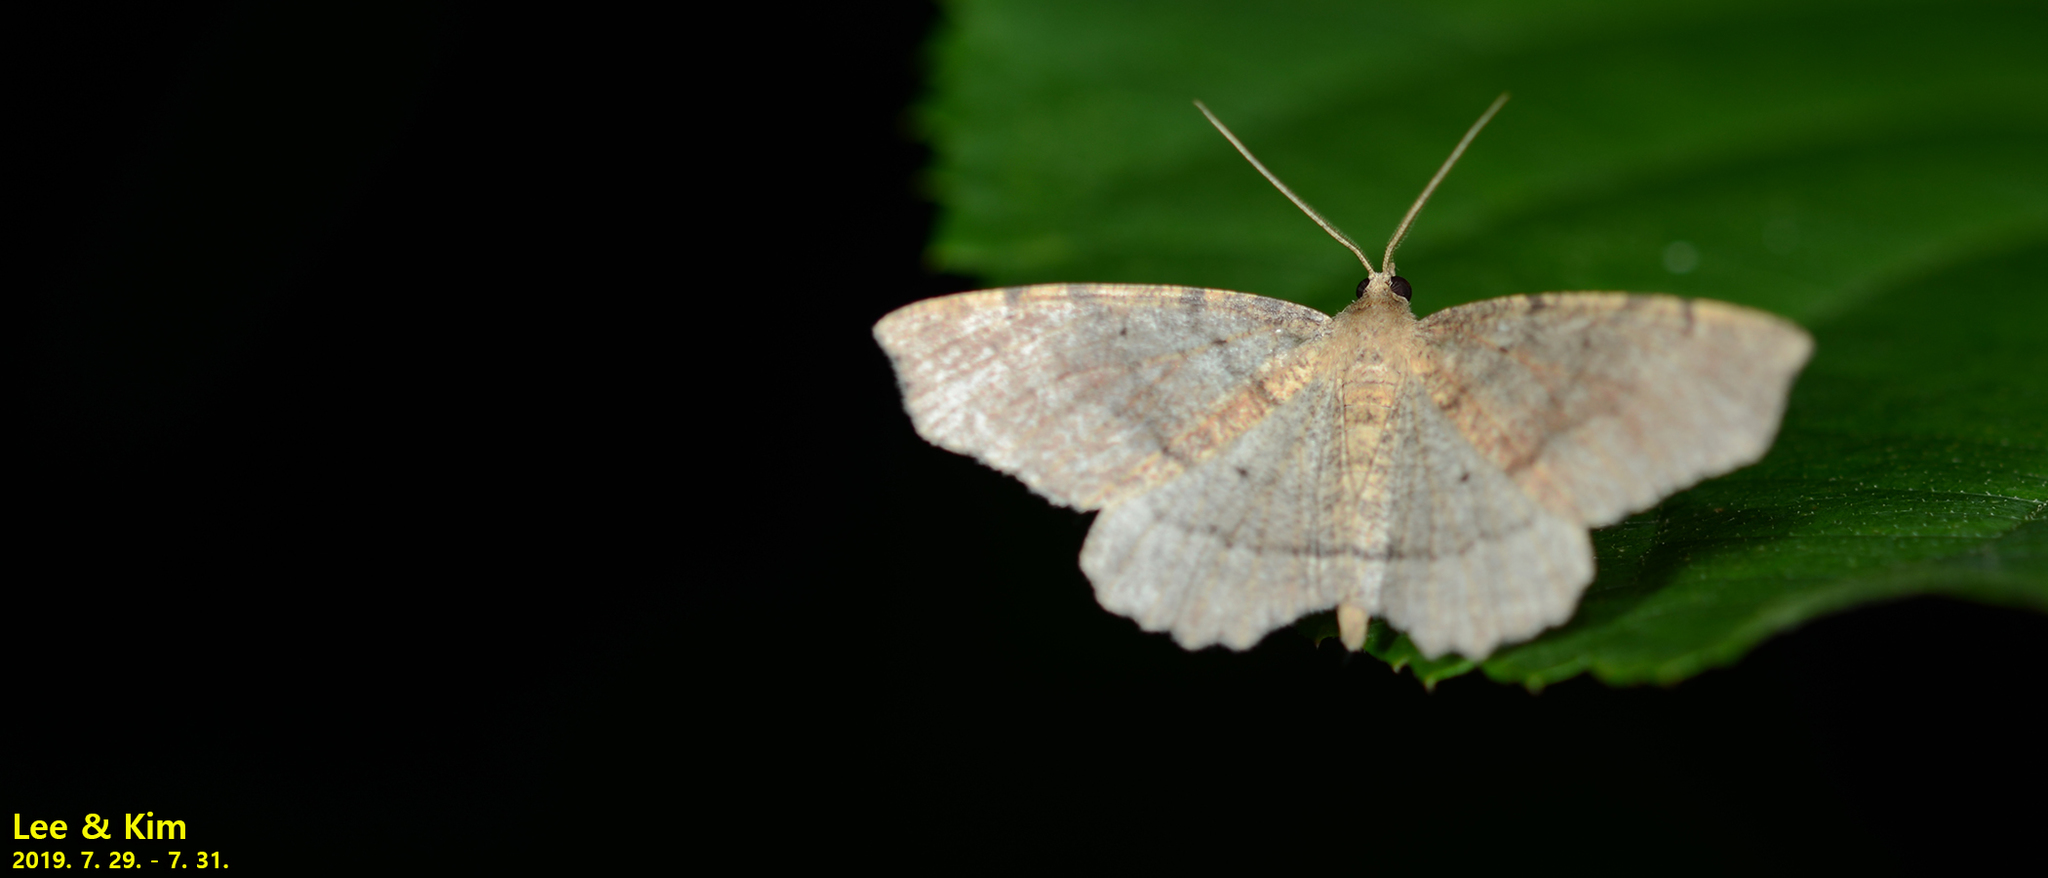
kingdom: Animalia
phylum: Arthropoda
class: Insecta
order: Lepidoptera
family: Geometridae
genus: Xerodes
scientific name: Xerodes rufescentaria
